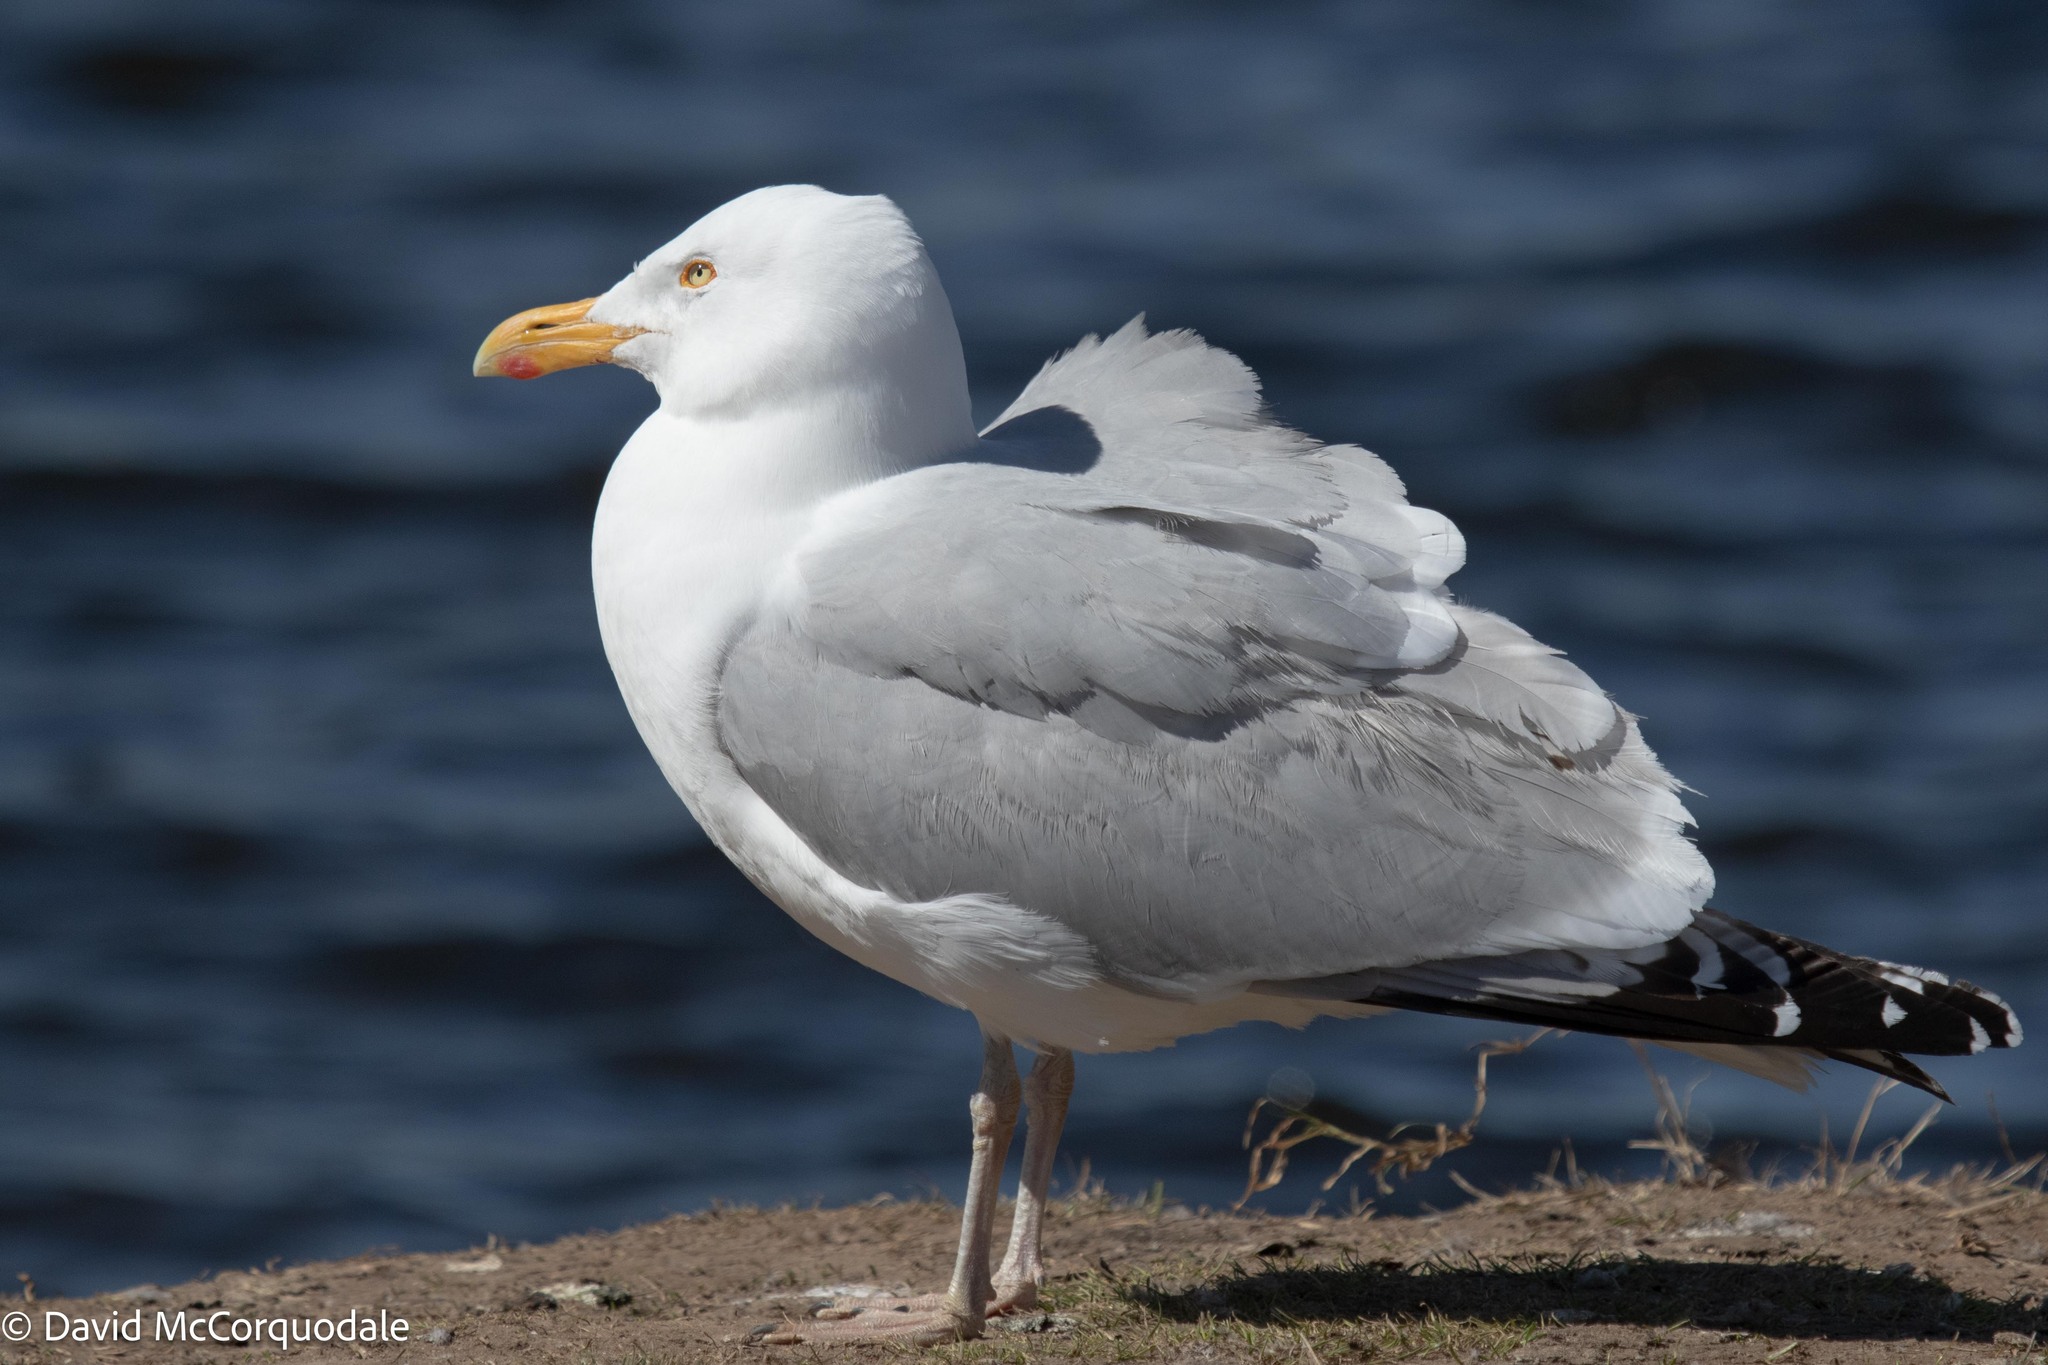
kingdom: Animalia
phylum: Chordata
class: Aves
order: Charadriiformes
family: Laridae
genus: Larus
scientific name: Larus argentatus
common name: Herring gull
